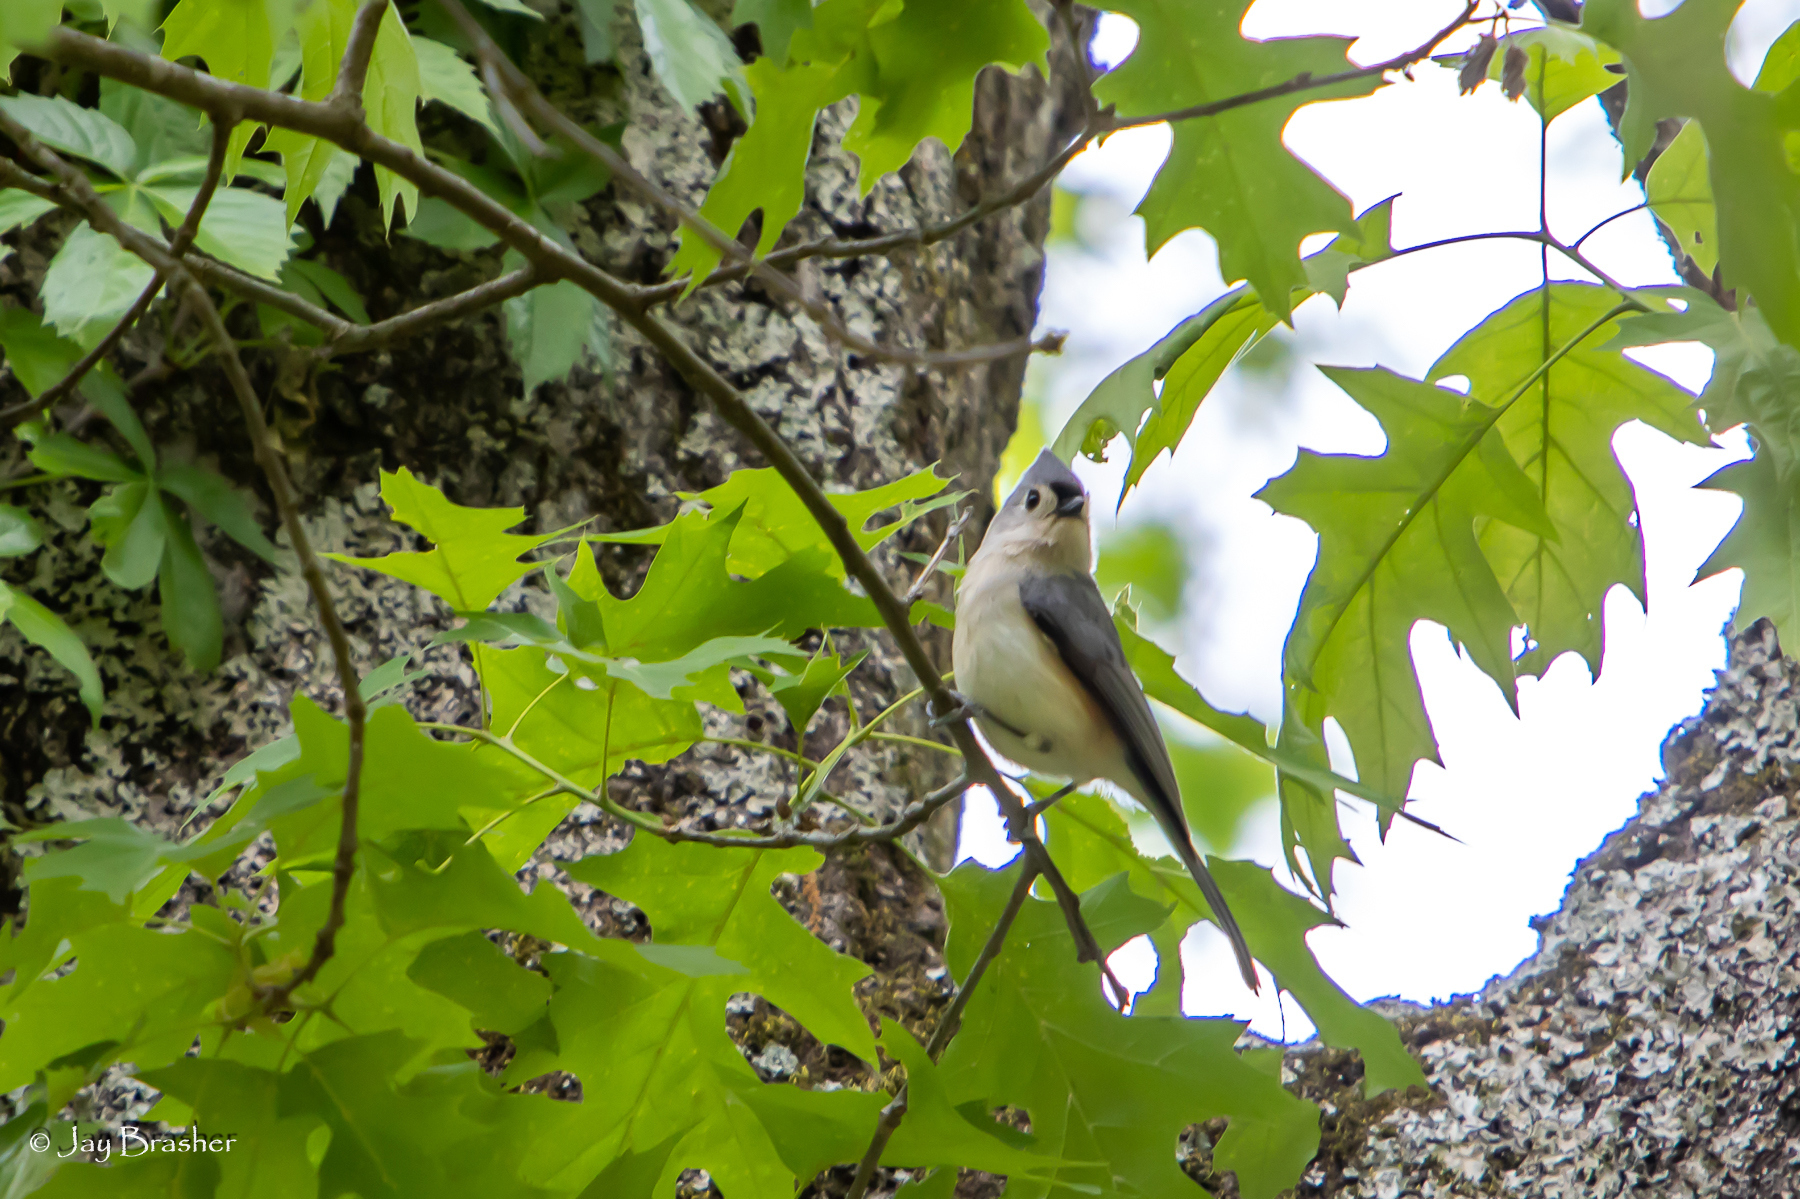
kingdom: Animalia
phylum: Chordata
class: Aves
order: Passeriformes
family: Paridae
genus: Baeolophus
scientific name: Baeolophus bicolor
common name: Tufted titmouse
